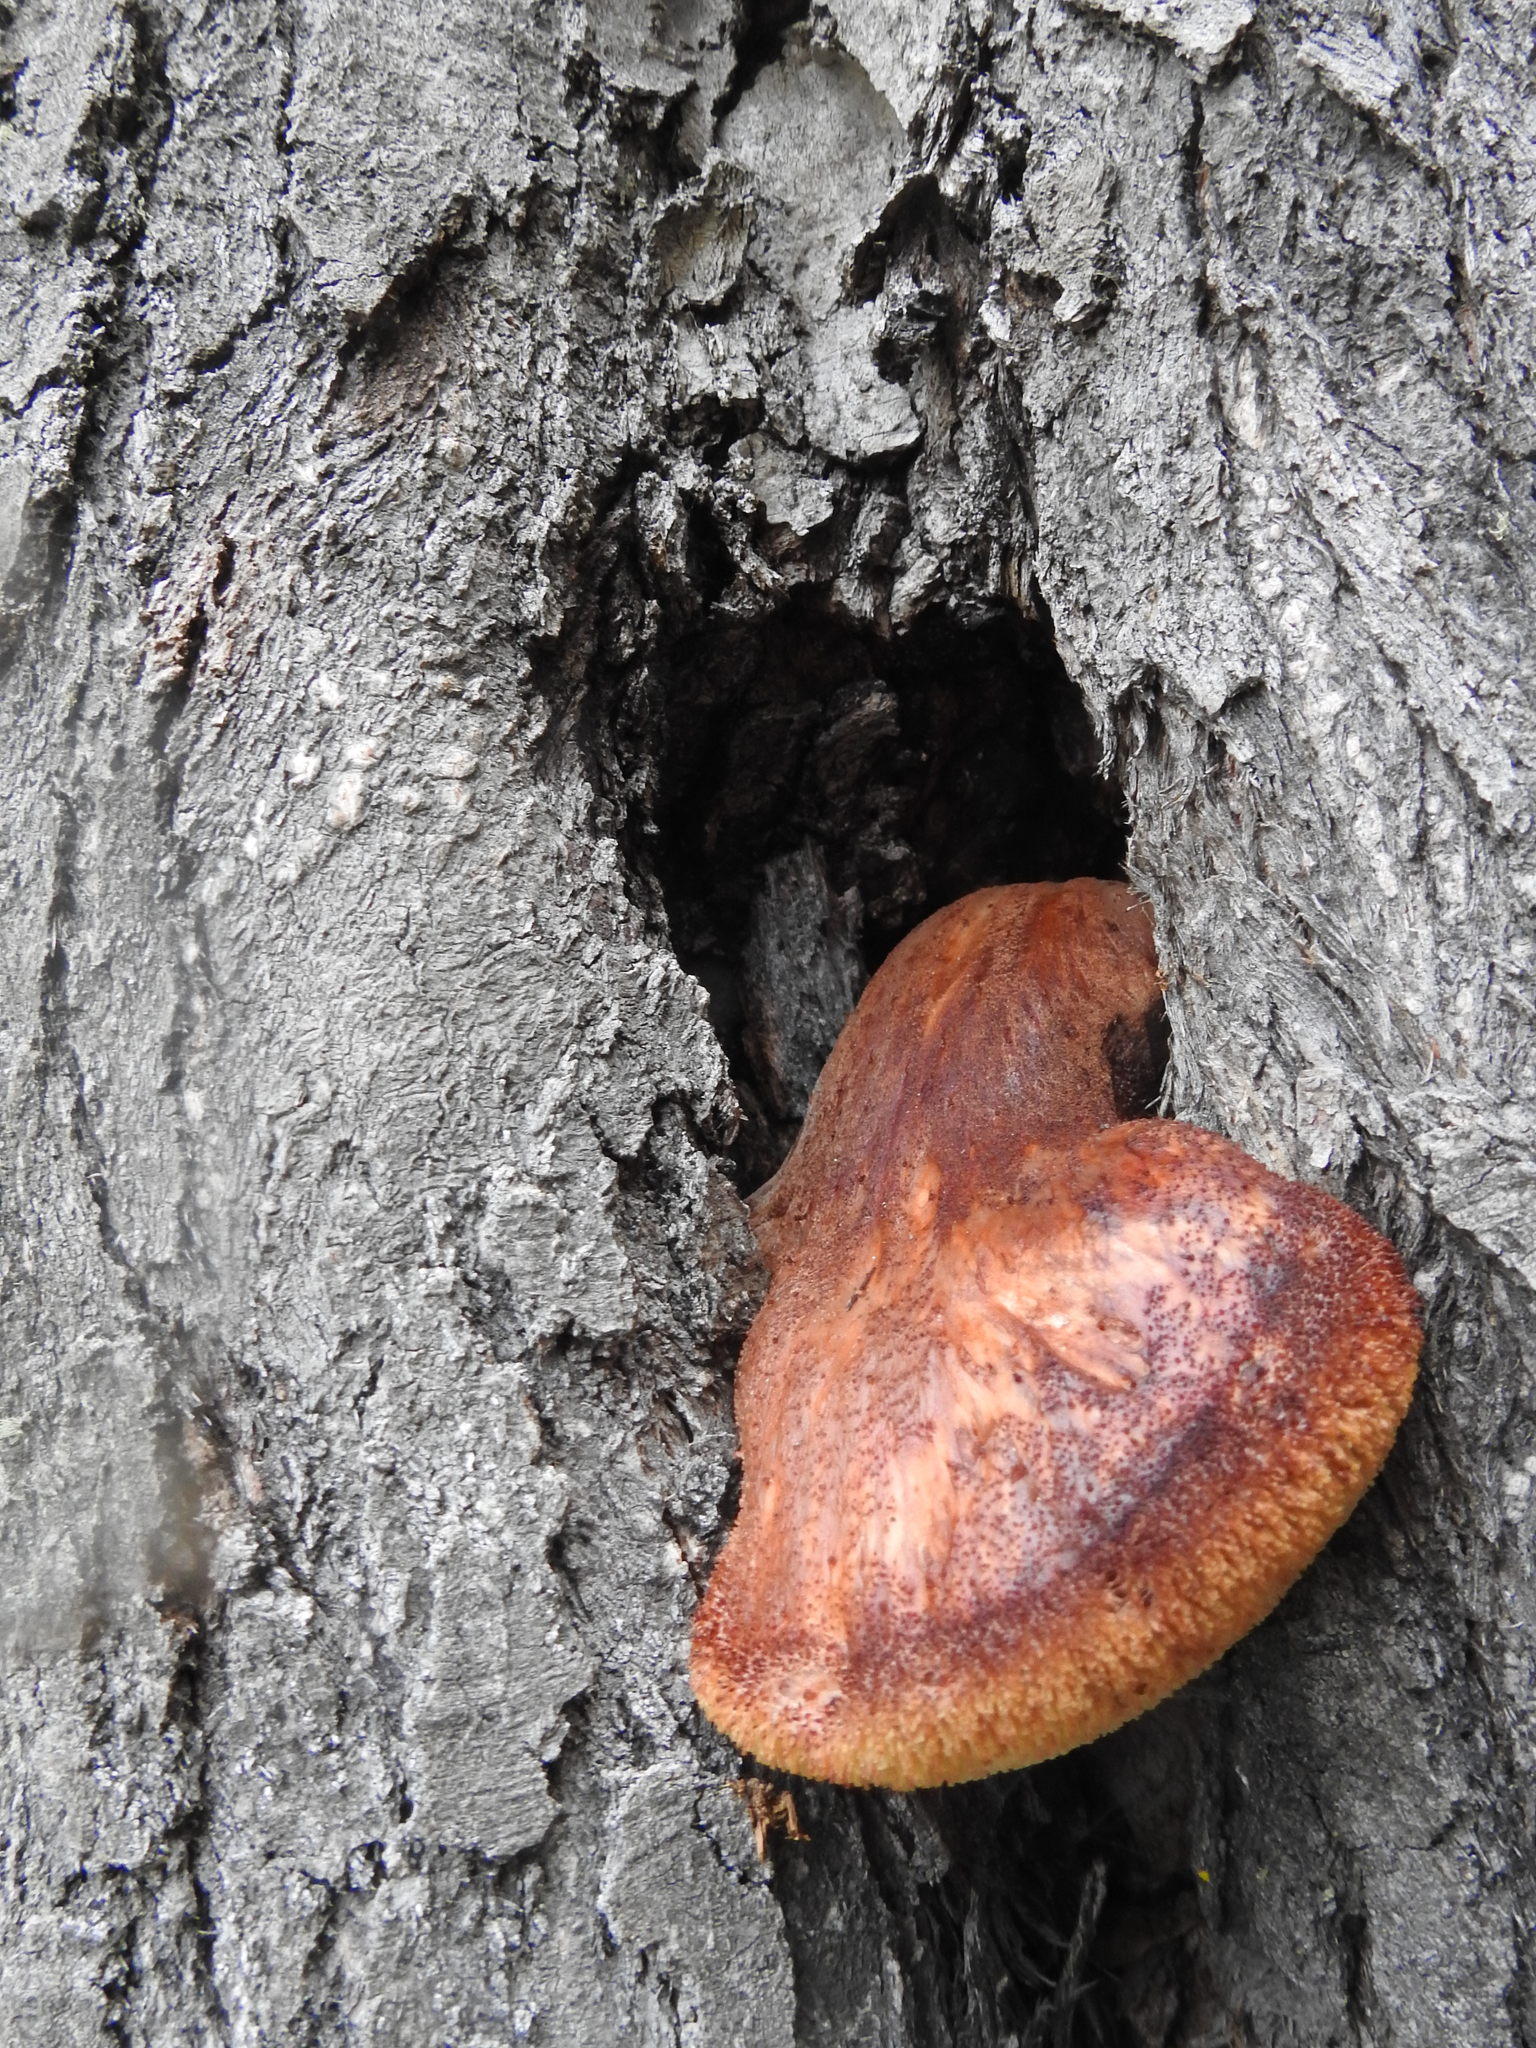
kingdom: Fungi
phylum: Basidiomycota
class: Agaricomycetes
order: Agaricales
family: Fistulinaceae
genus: Fistulina
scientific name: Fistulina antarctica
